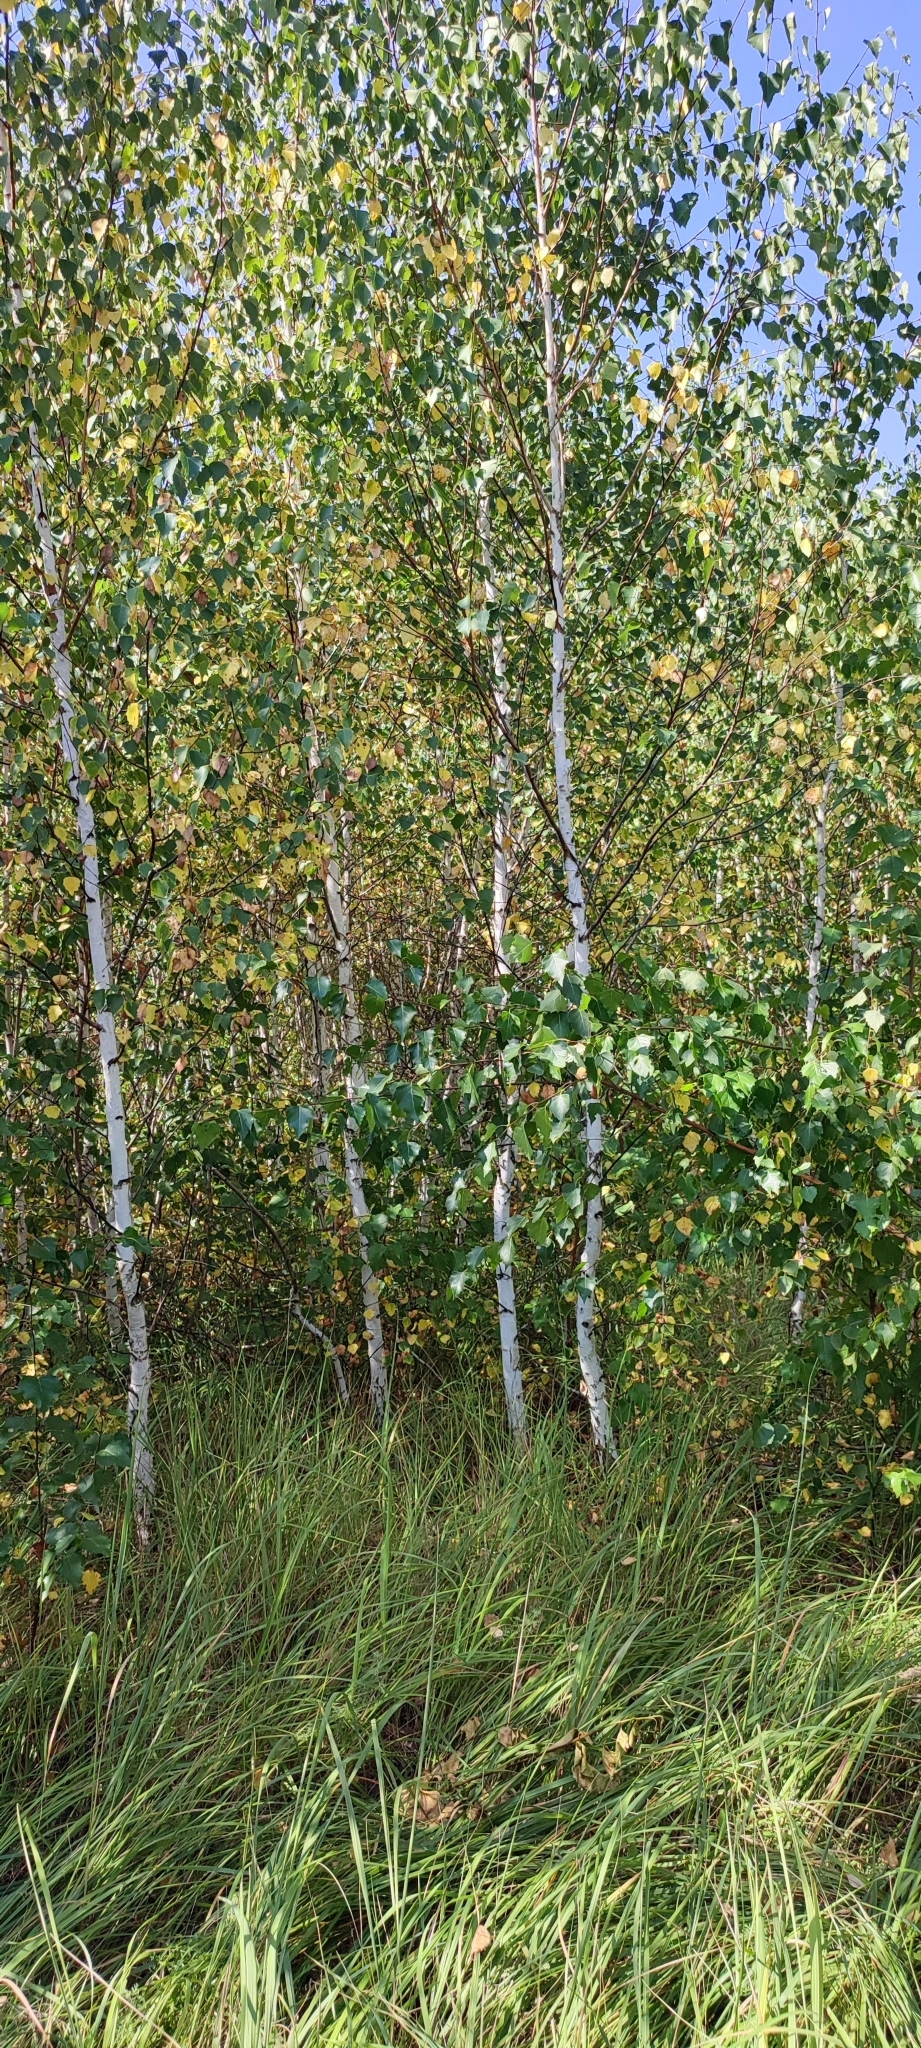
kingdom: Plantae
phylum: Tracheophyta
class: Magnoliopsida
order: Fagales
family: Betulaceae
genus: Betula
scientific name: Betula pendula
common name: Silver birch
